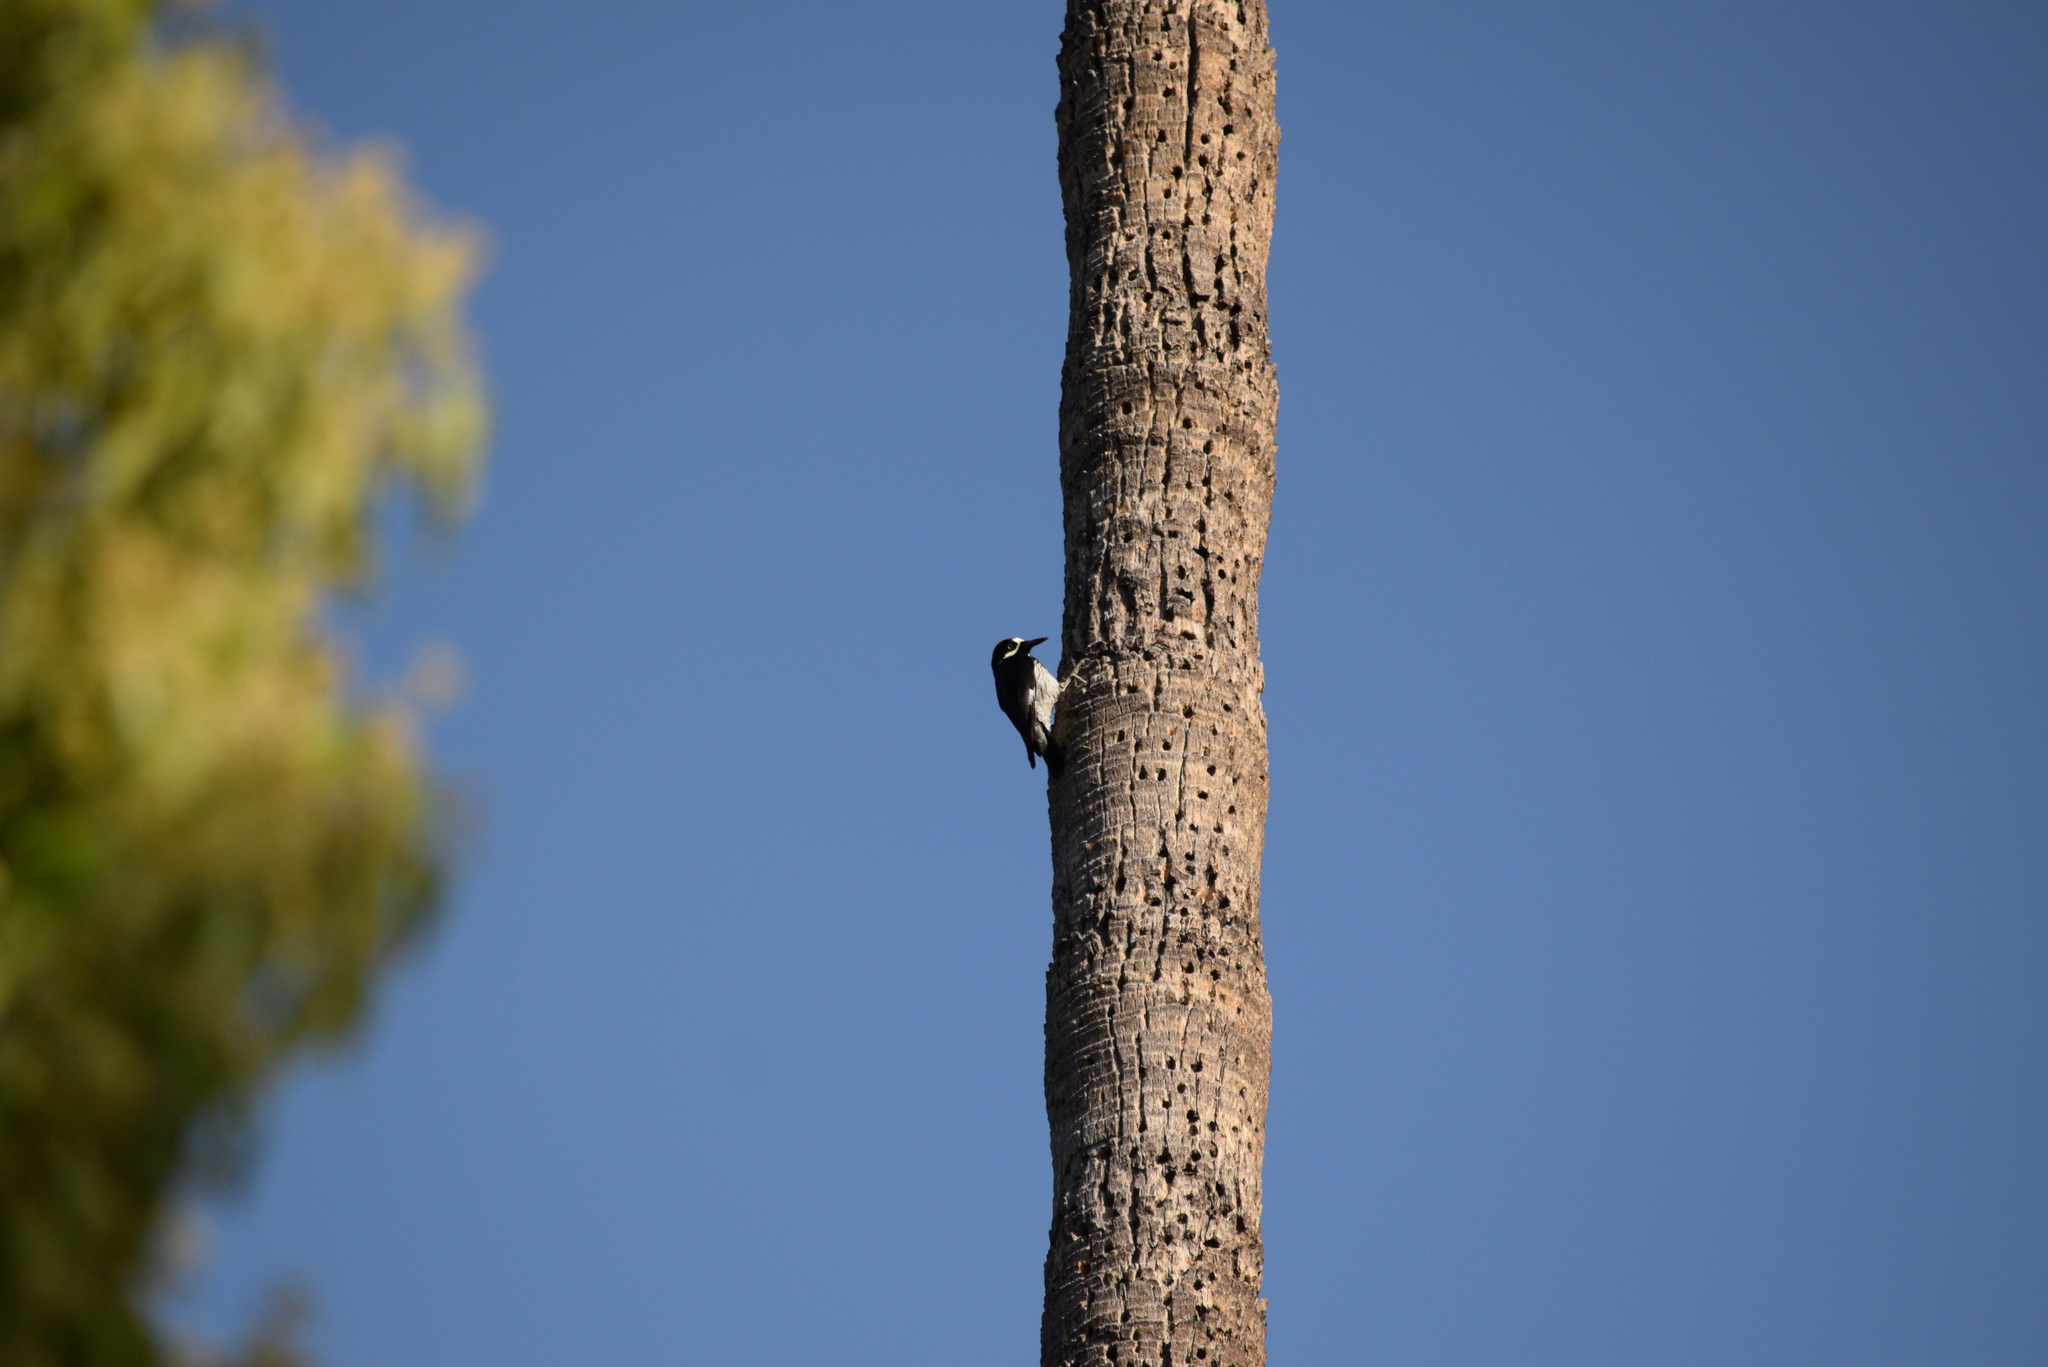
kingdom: Animalia
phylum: Chordata
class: Aves
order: Piciformes
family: Picidae
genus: Melanerpes
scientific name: Melanerpes formicivorus
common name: Acorn woodpecker
